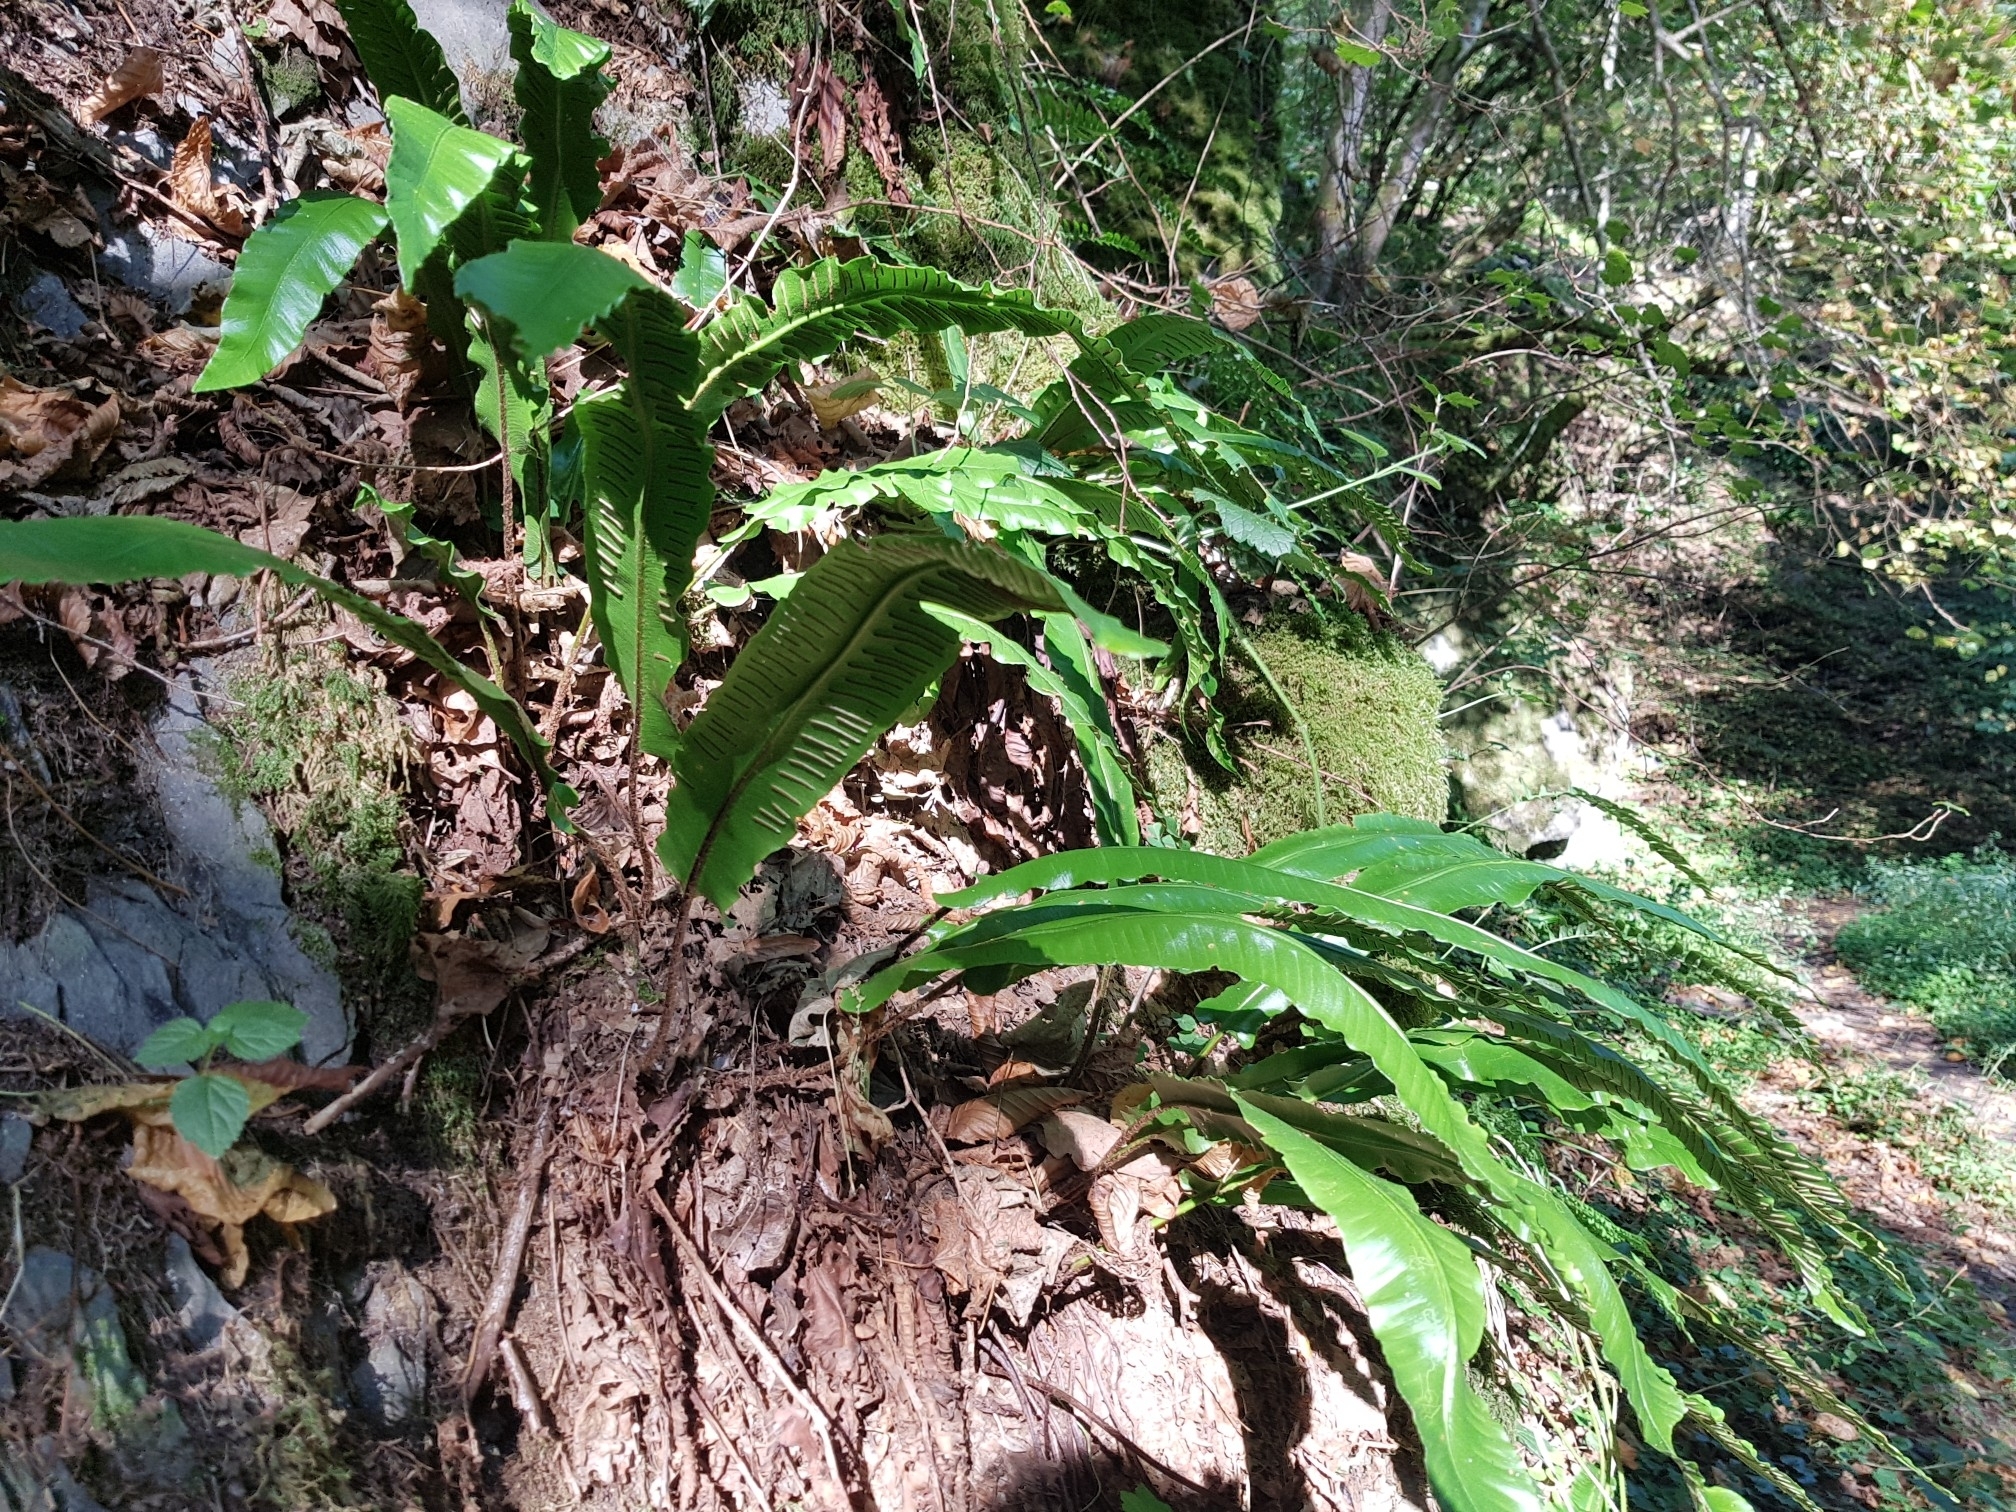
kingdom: Plantae
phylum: Tracheophyta
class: Polypodiopsida
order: Polypodiales
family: Aspleniaceae
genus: Asplenium
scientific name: Asplenium scolopendrium
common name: Hart's-tongue fern
